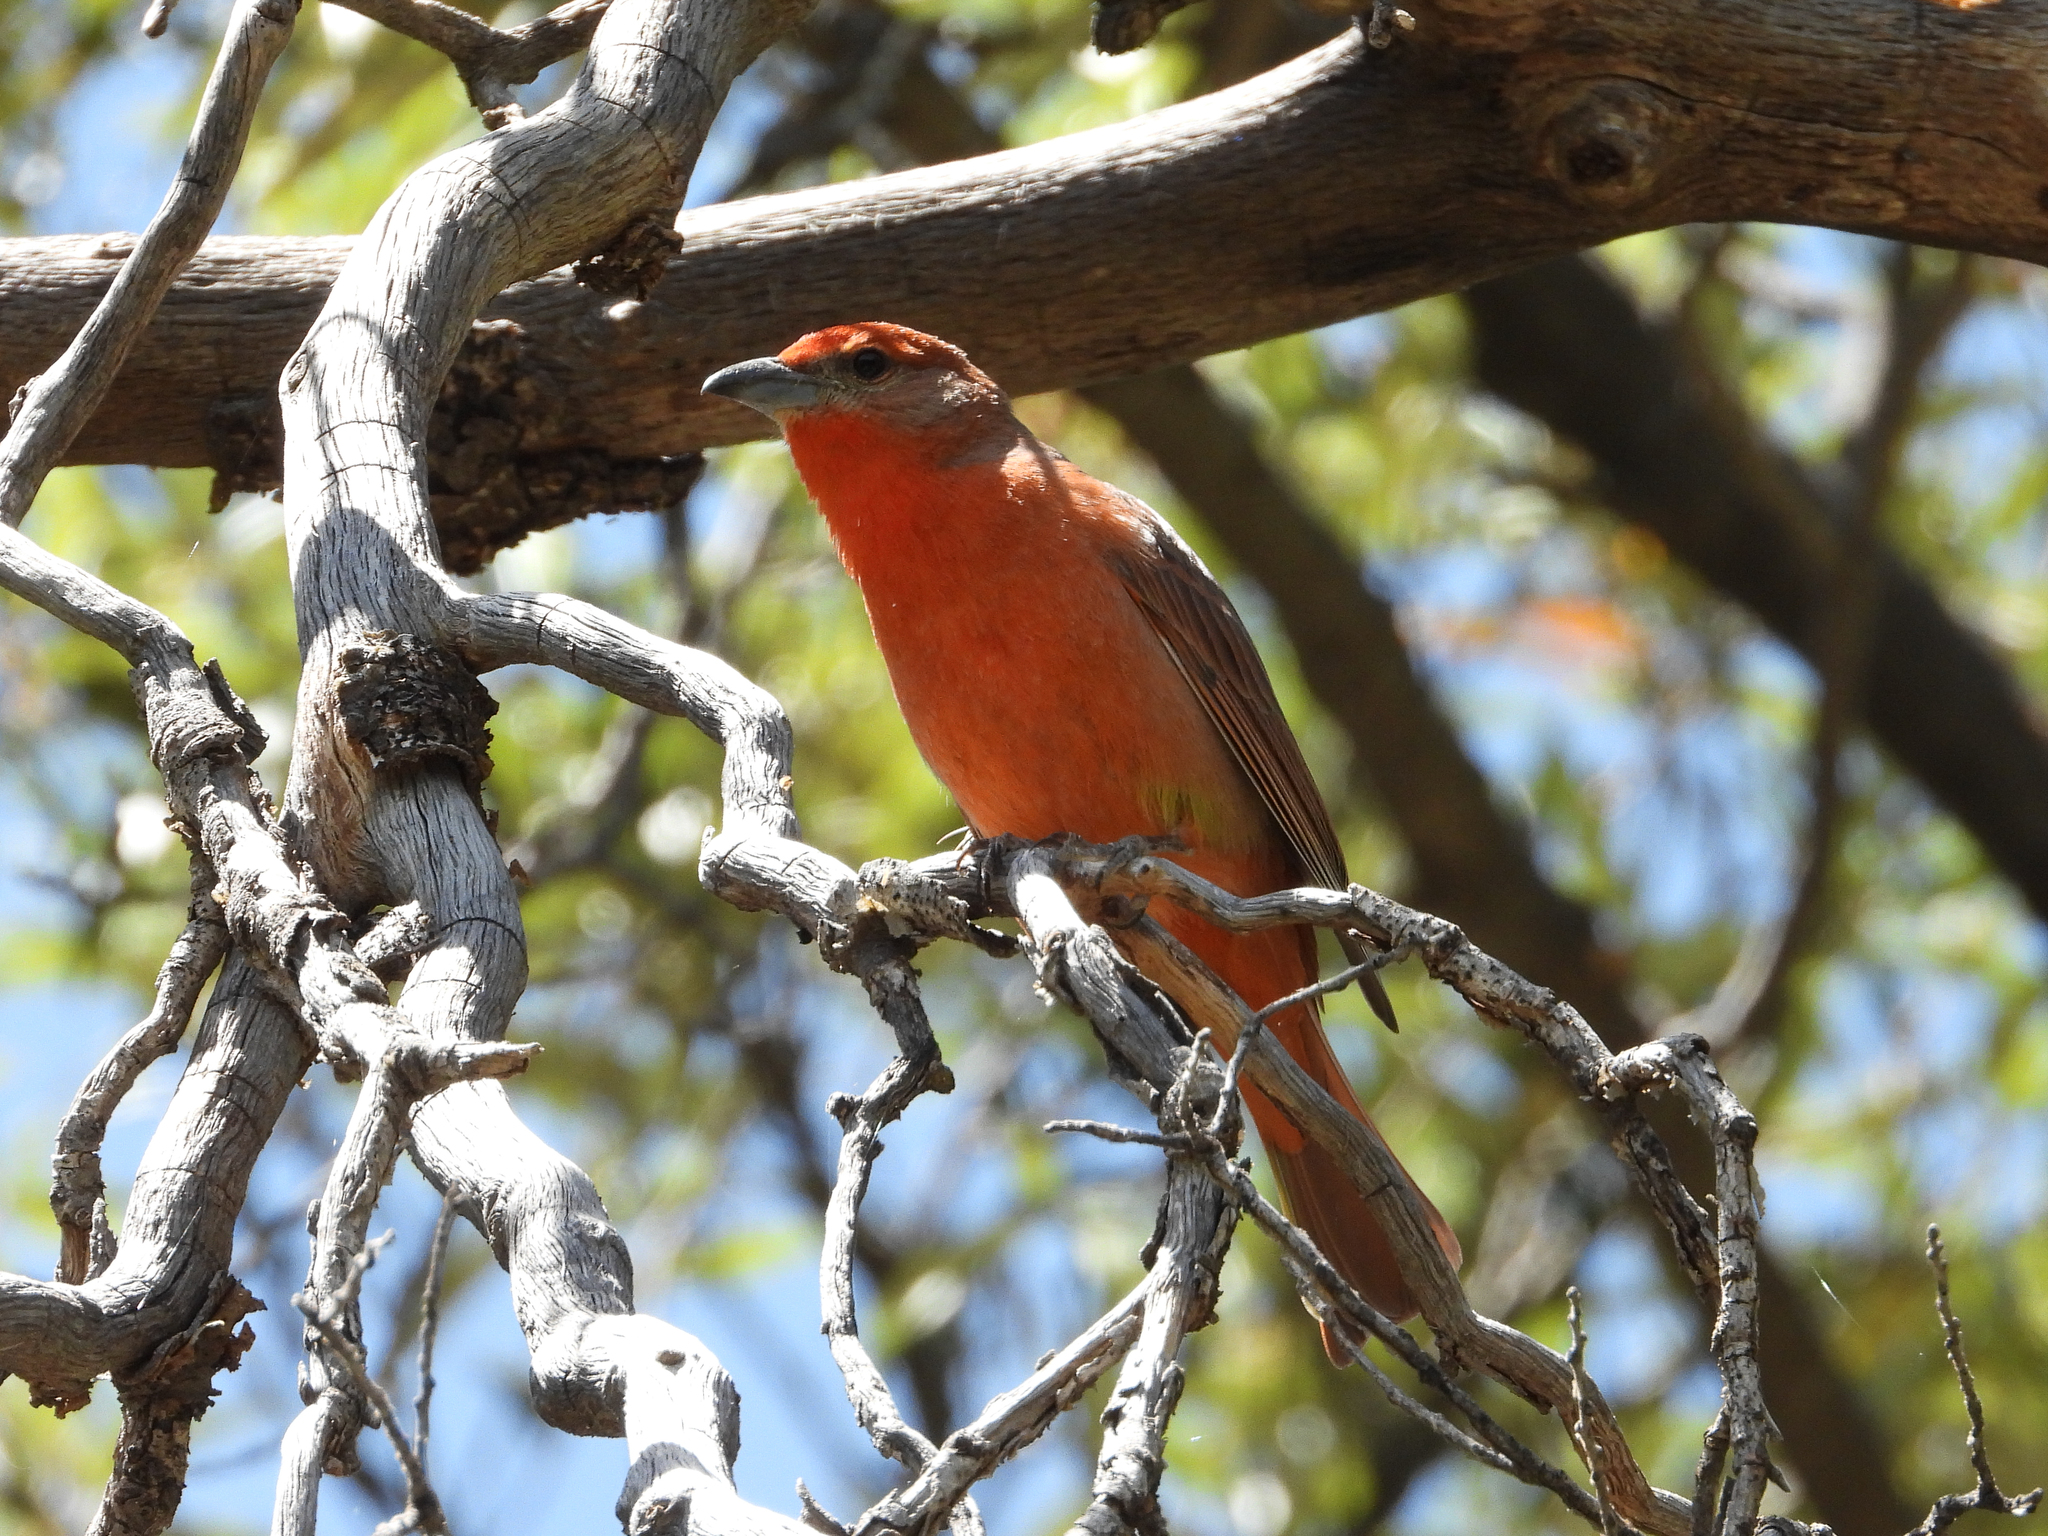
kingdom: Animalia
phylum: Chordata
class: Aves
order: Passeriformes
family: Cardinalidae
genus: Piranga
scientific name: Piranga flava
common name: Red tanager
